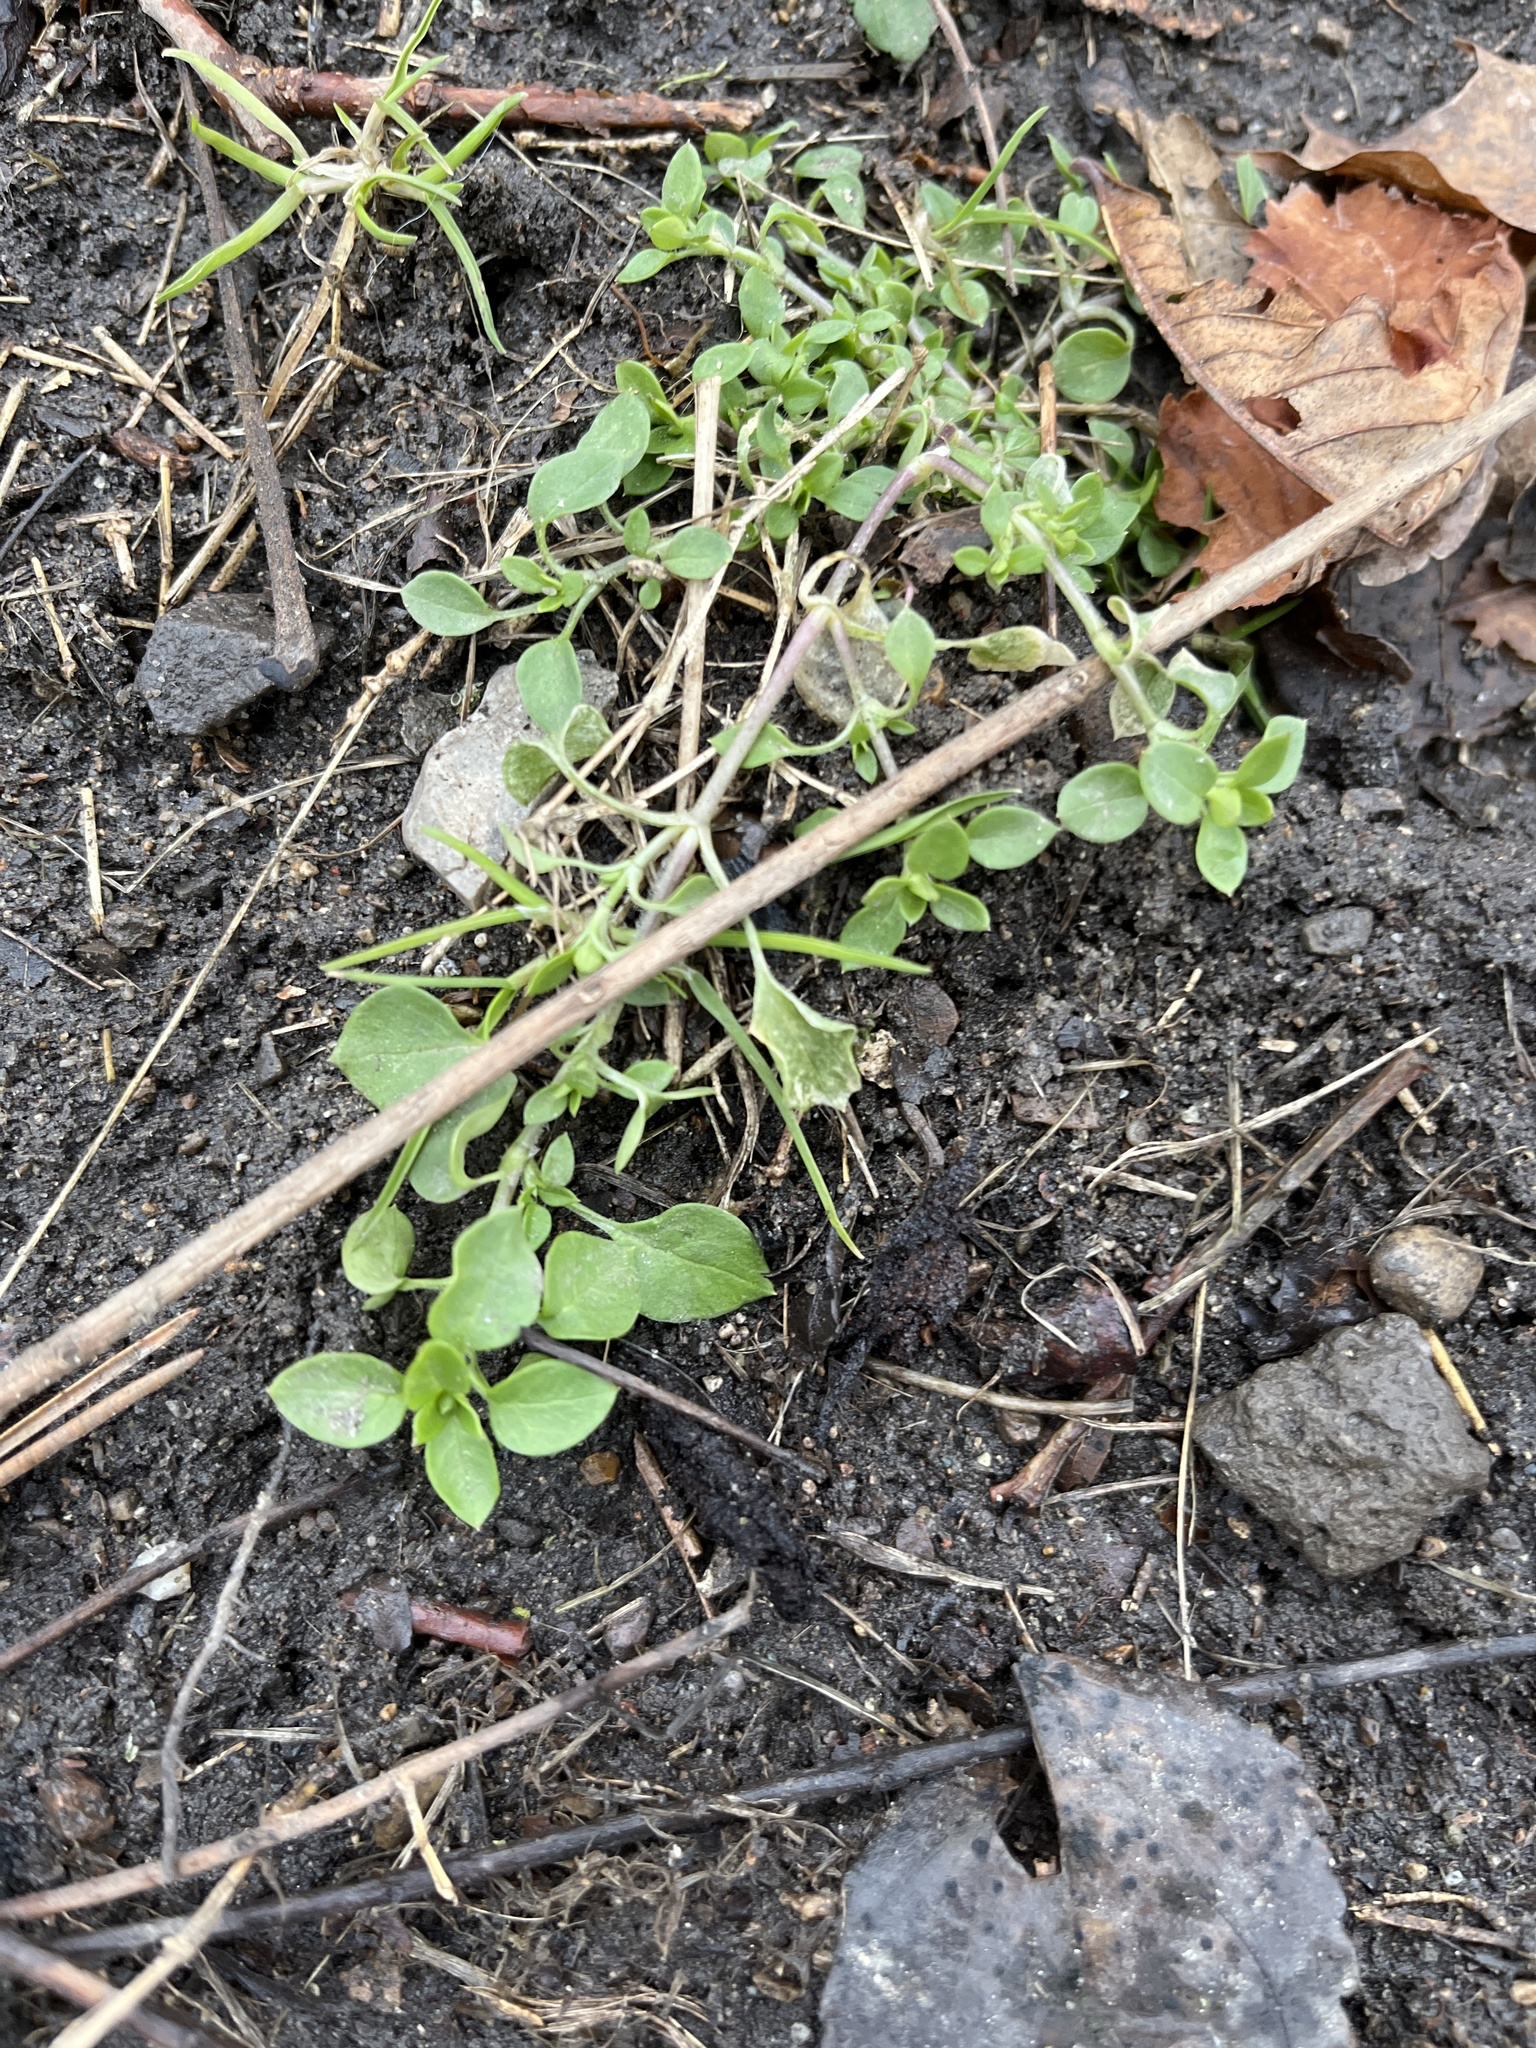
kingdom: Plantae
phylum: Tracheophyta
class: Magnoliopsida
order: Caryophyllales
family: Caryophyllaceae
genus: Stellaria
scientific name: Stellaria media
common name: Common chickweed
